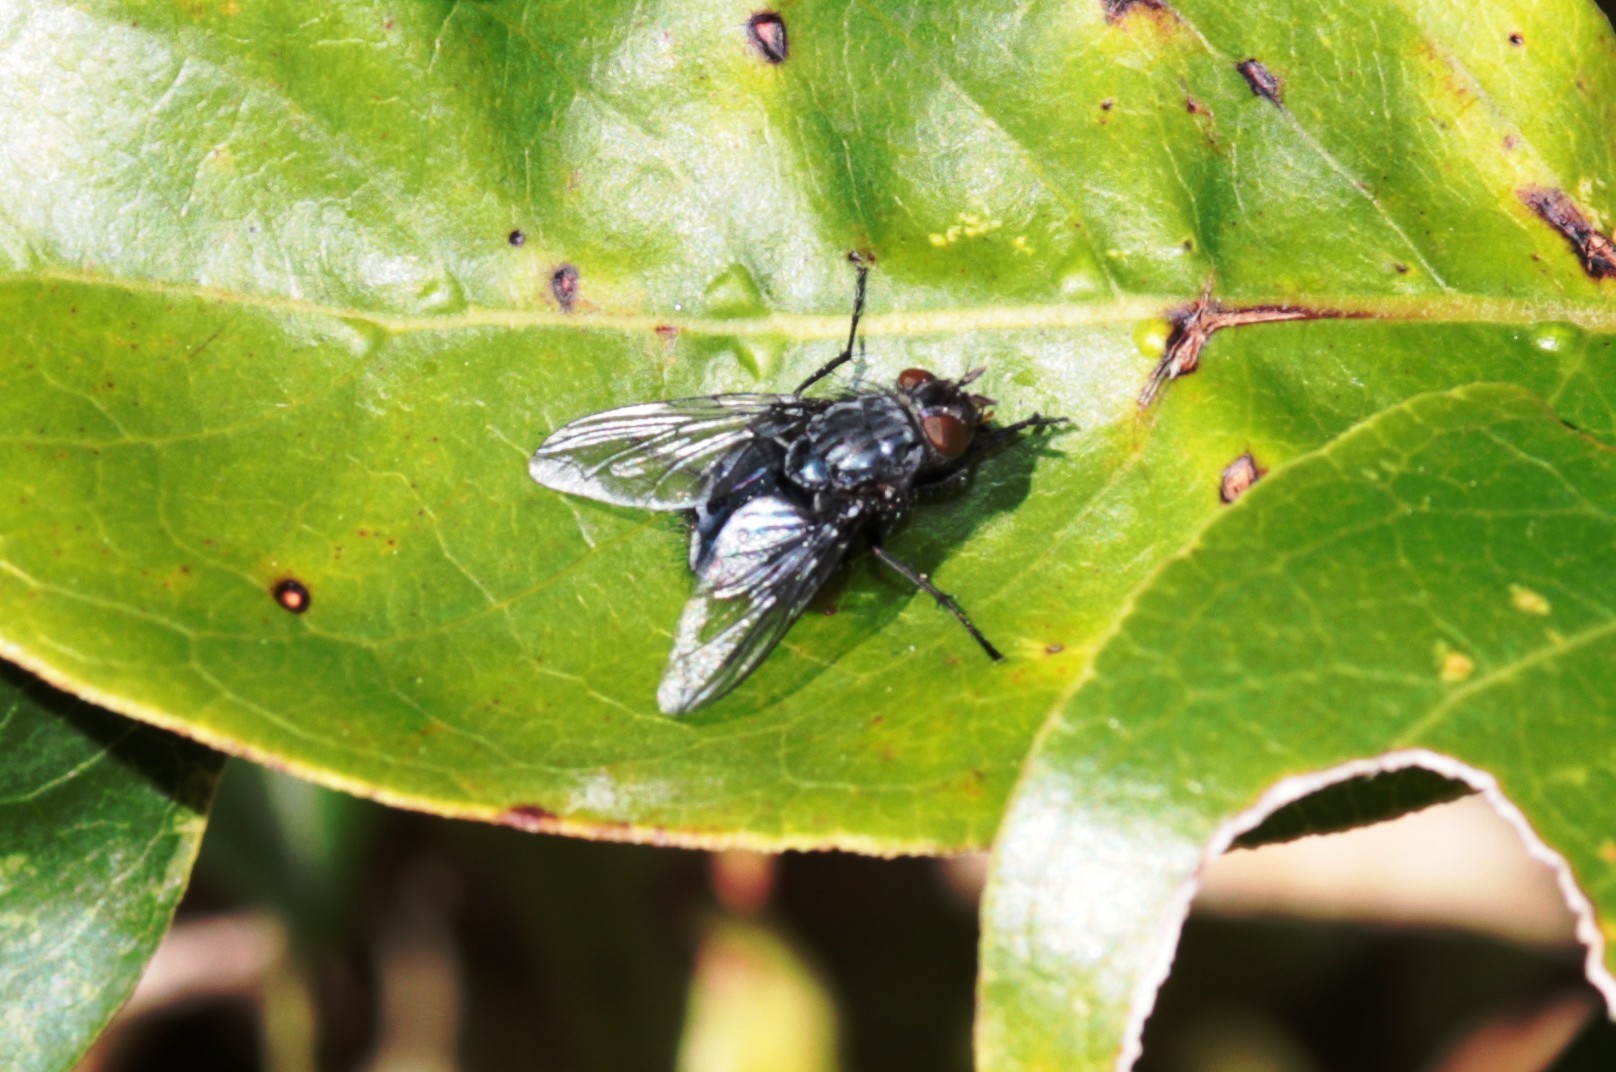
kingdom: Animalia
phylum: Arthropoda
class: Insecta
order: Diptera
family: Calliphoridae
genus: Calliphora
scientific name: Calliphora vicina
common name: Common blow flie
